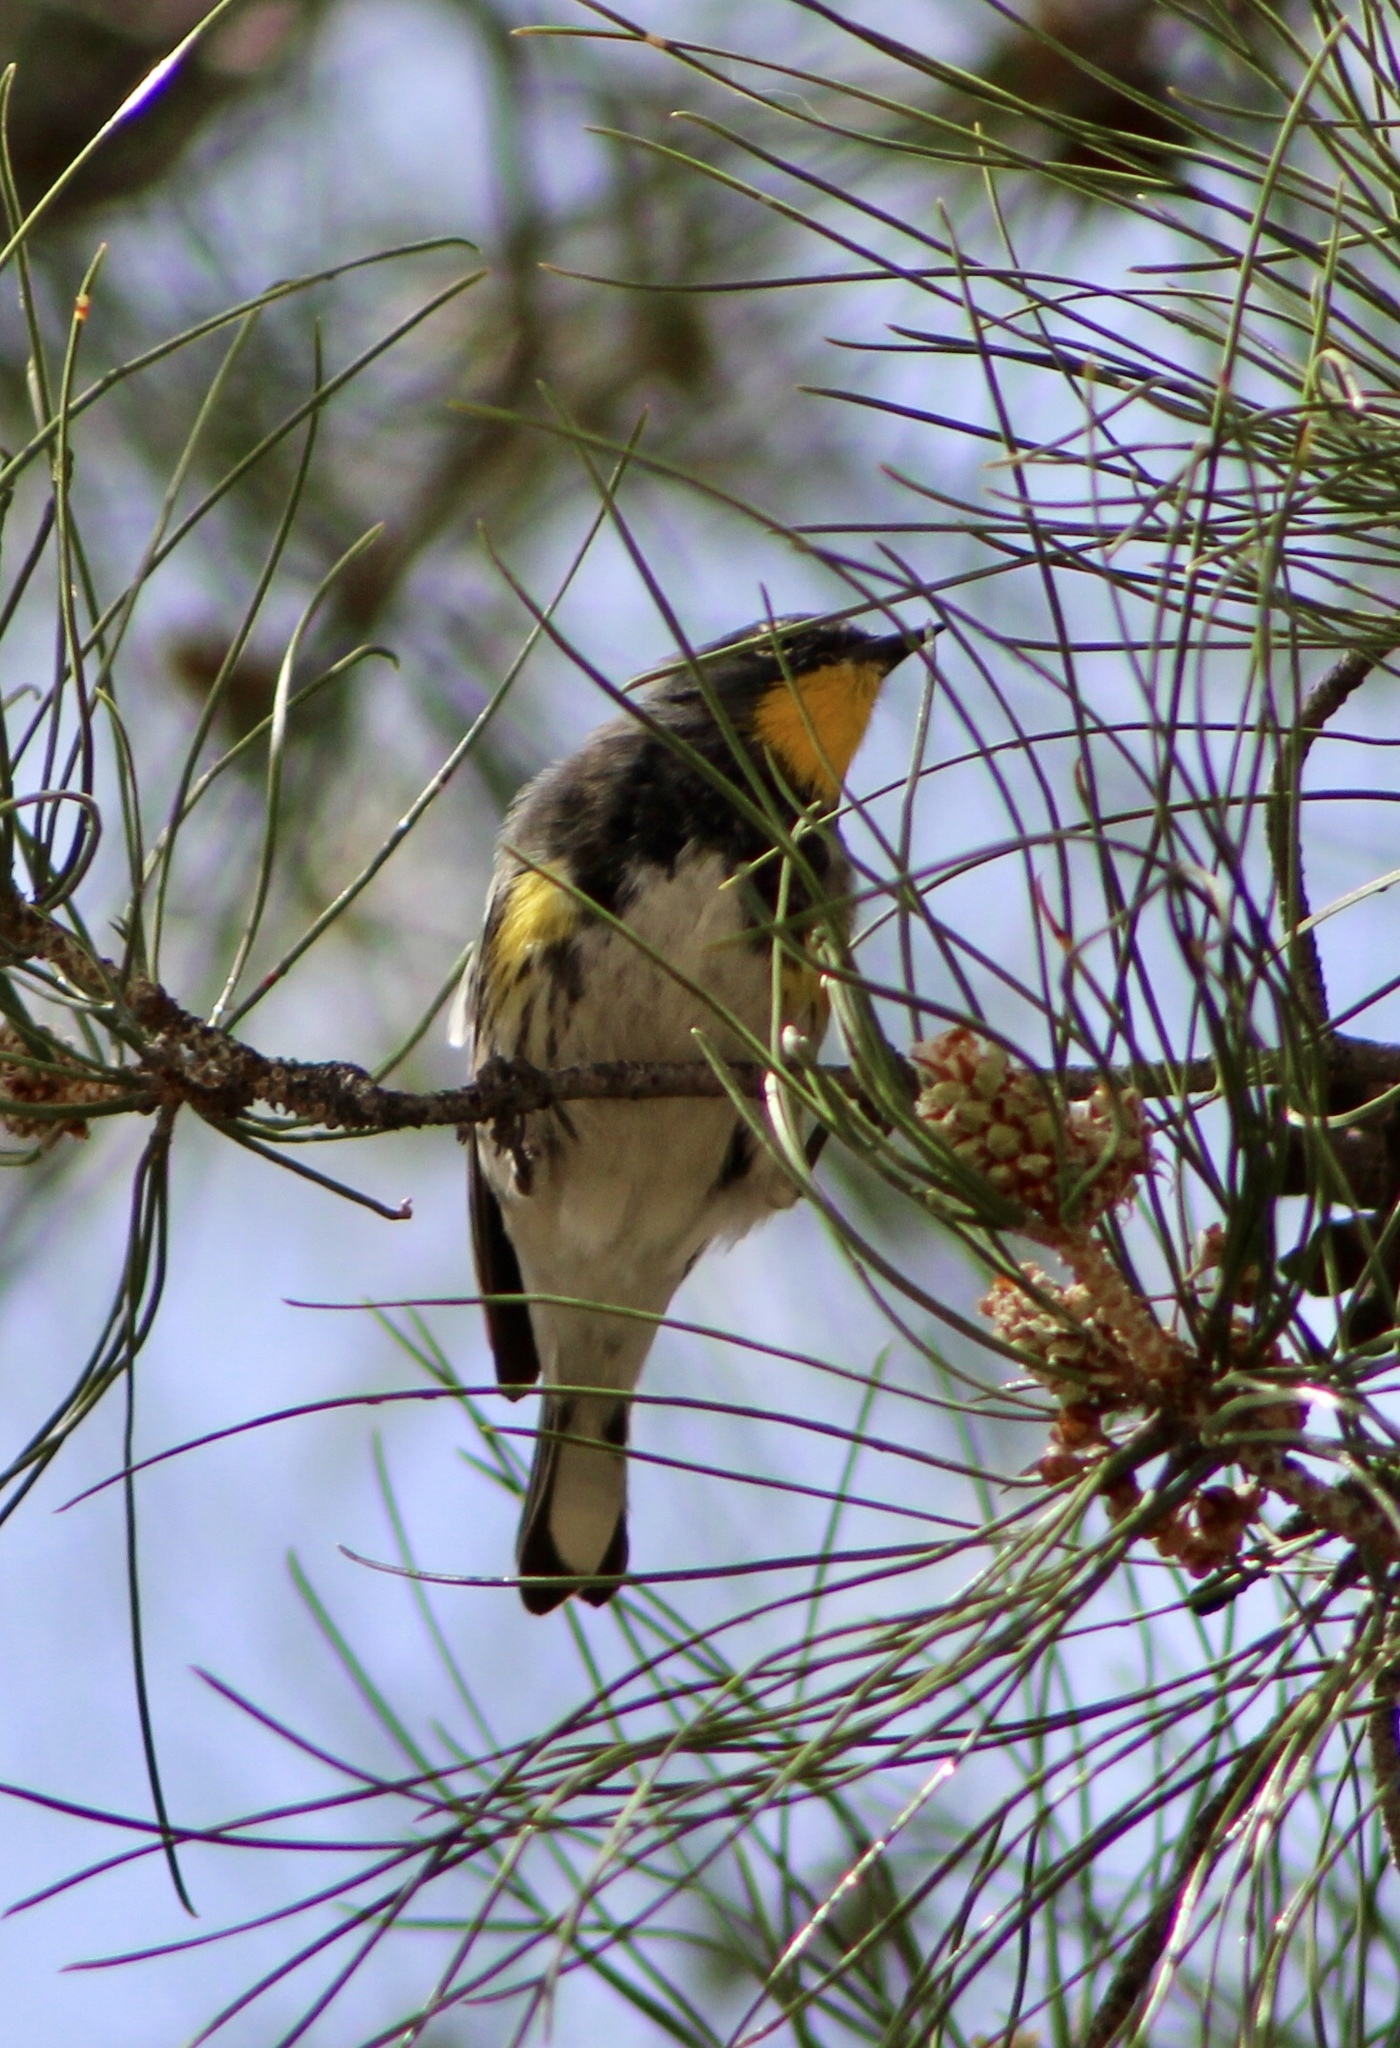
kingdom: Animalia
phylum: Chordata
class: Aves
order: Passeriformes
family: Parulidae
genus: Setophaga
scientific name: Setophaga auduboni
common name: Audubon's warbler
